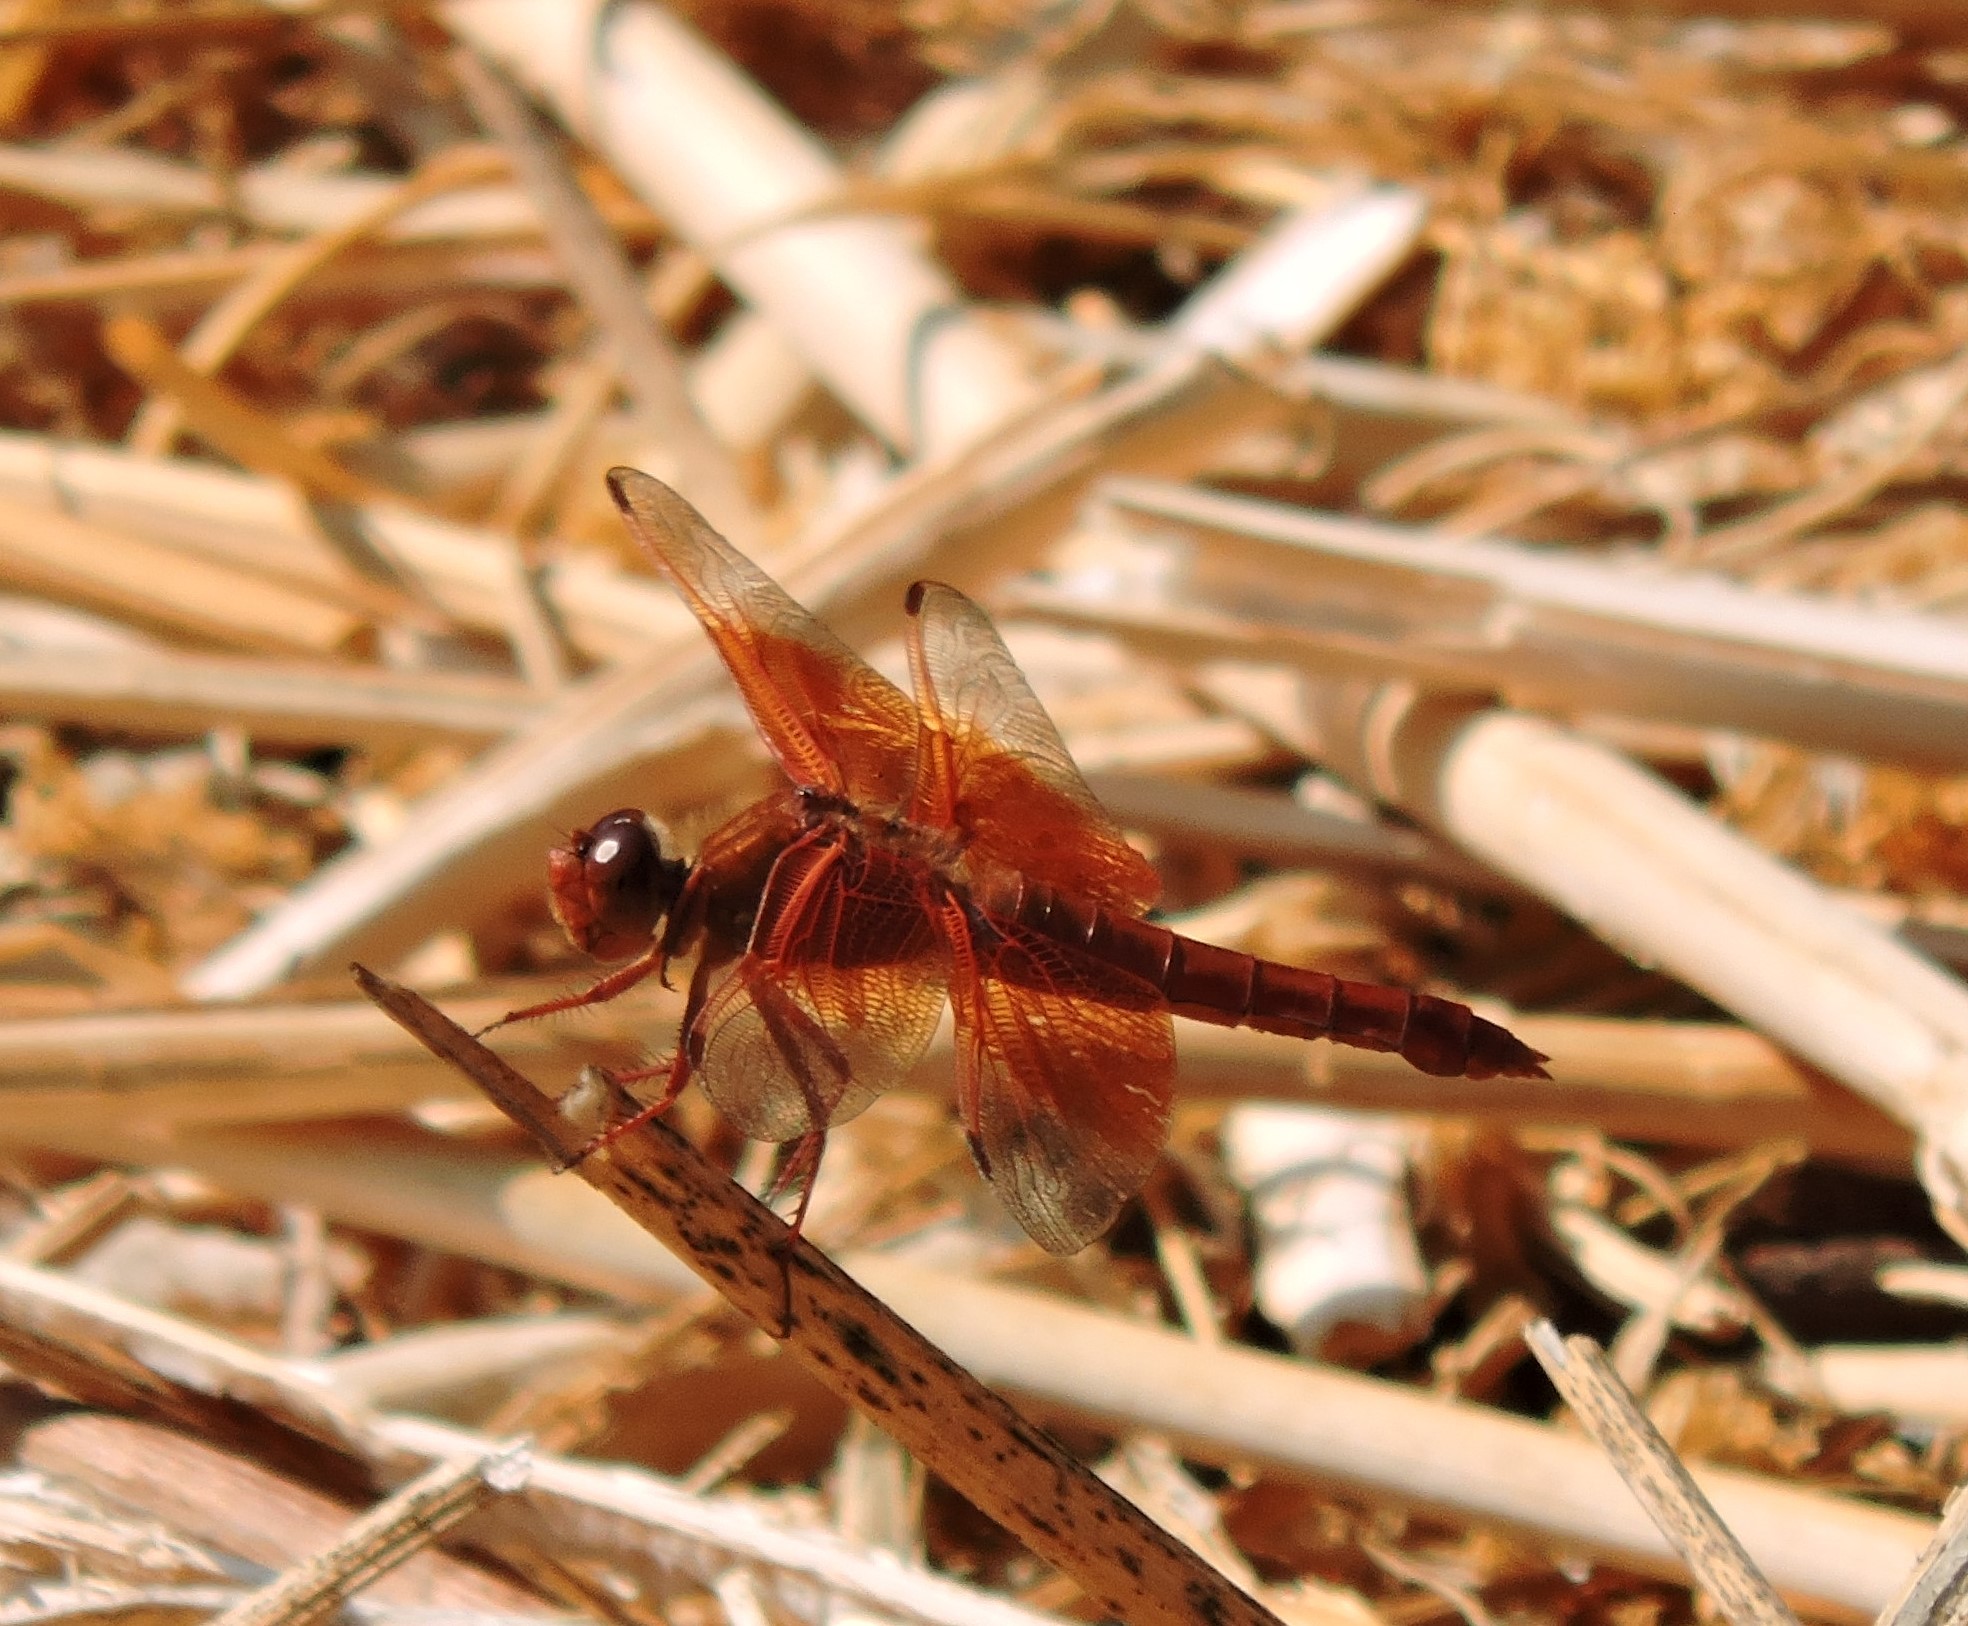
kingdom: Animalia
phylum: Arthropoda
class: Insecta
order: Odonata
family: Libellulidae
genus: Libellula
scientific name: Libellula saturata
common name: Flame skimmer
